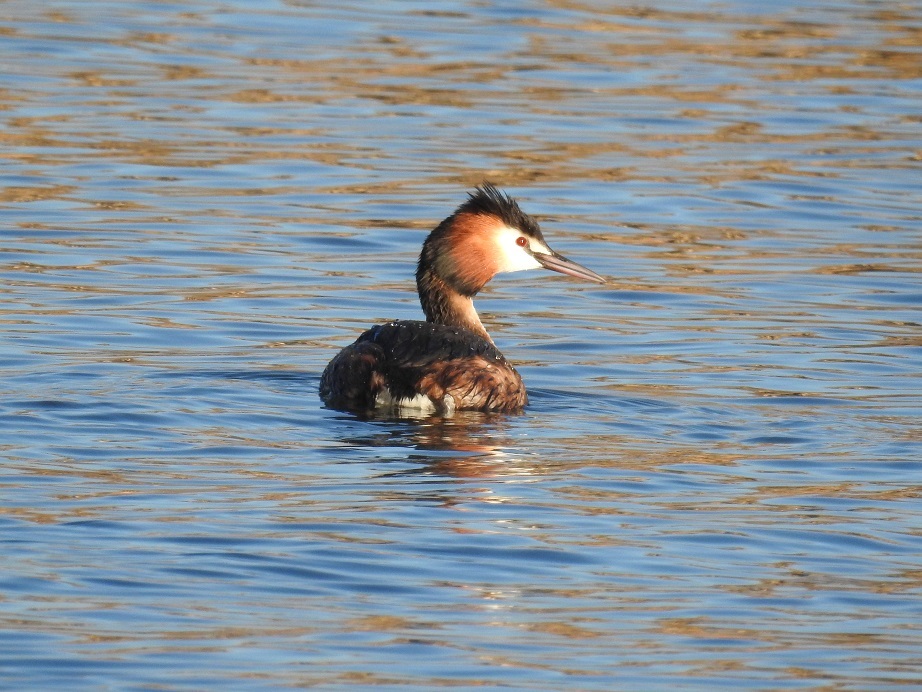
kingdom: Animalia
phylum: Chordata
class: Aves
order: Podicipediformes
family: Podicipedidae
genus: Podiceps
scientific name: Podiceps cristatus
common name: Great crested grebe
